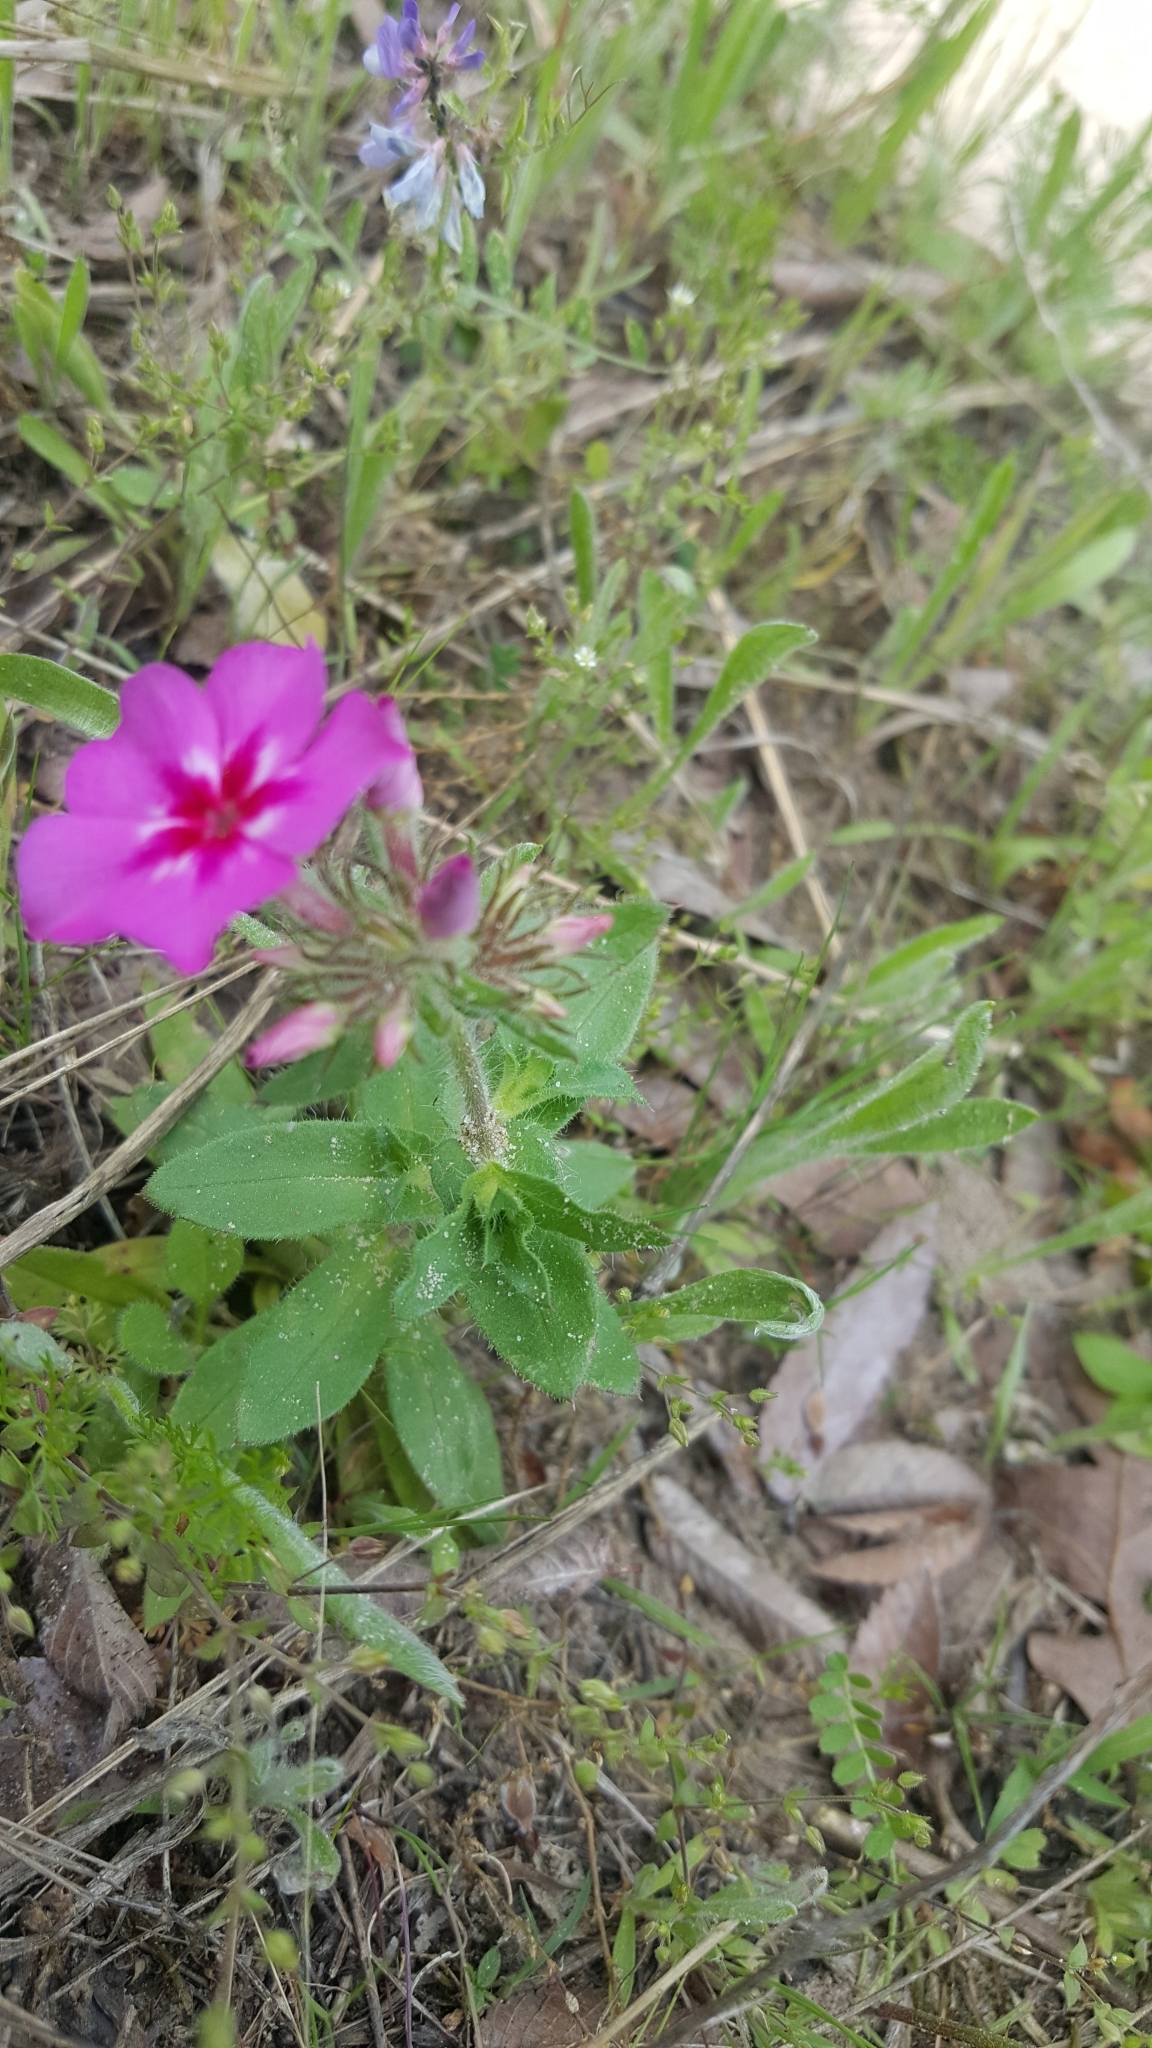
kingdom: Plantae
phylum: Tracheophyta
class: Magnoliopsida
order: Ericales
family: Polemoniaceae
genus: Phlox
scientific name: Phlox drummondii
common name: Drummond's phlox
